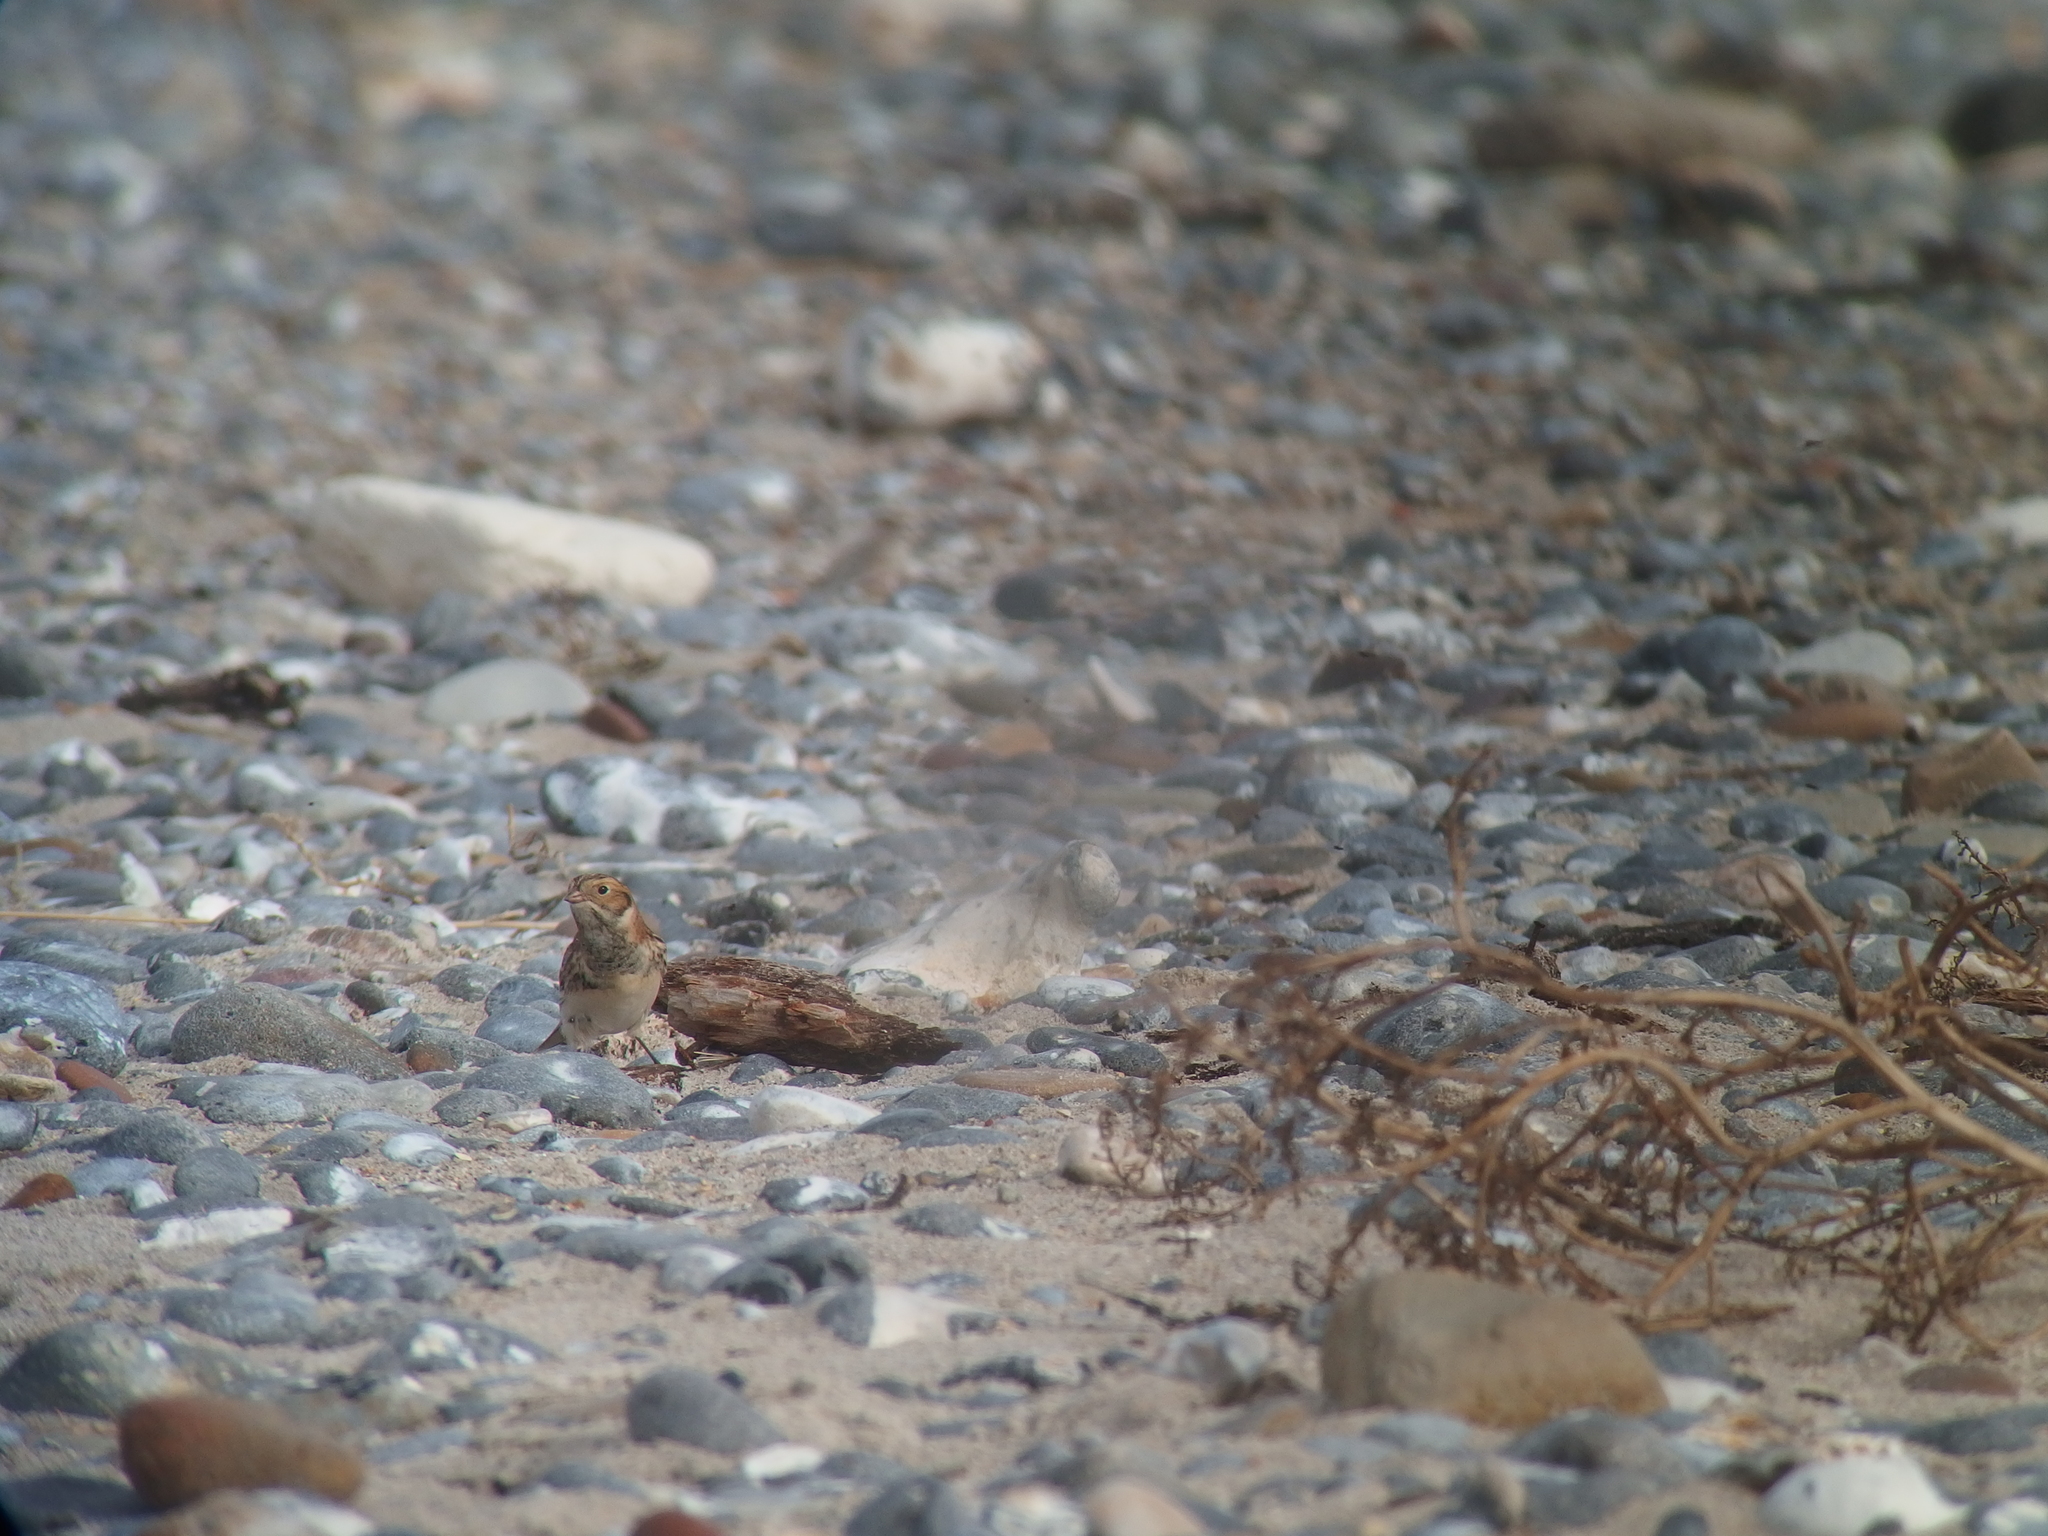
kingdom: Animalia
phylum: Chordata
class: Aves
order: Passeriformes
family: Calcariidae
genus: Calcarius
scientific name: Calcarius lapponicus
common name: Lapland longspur
